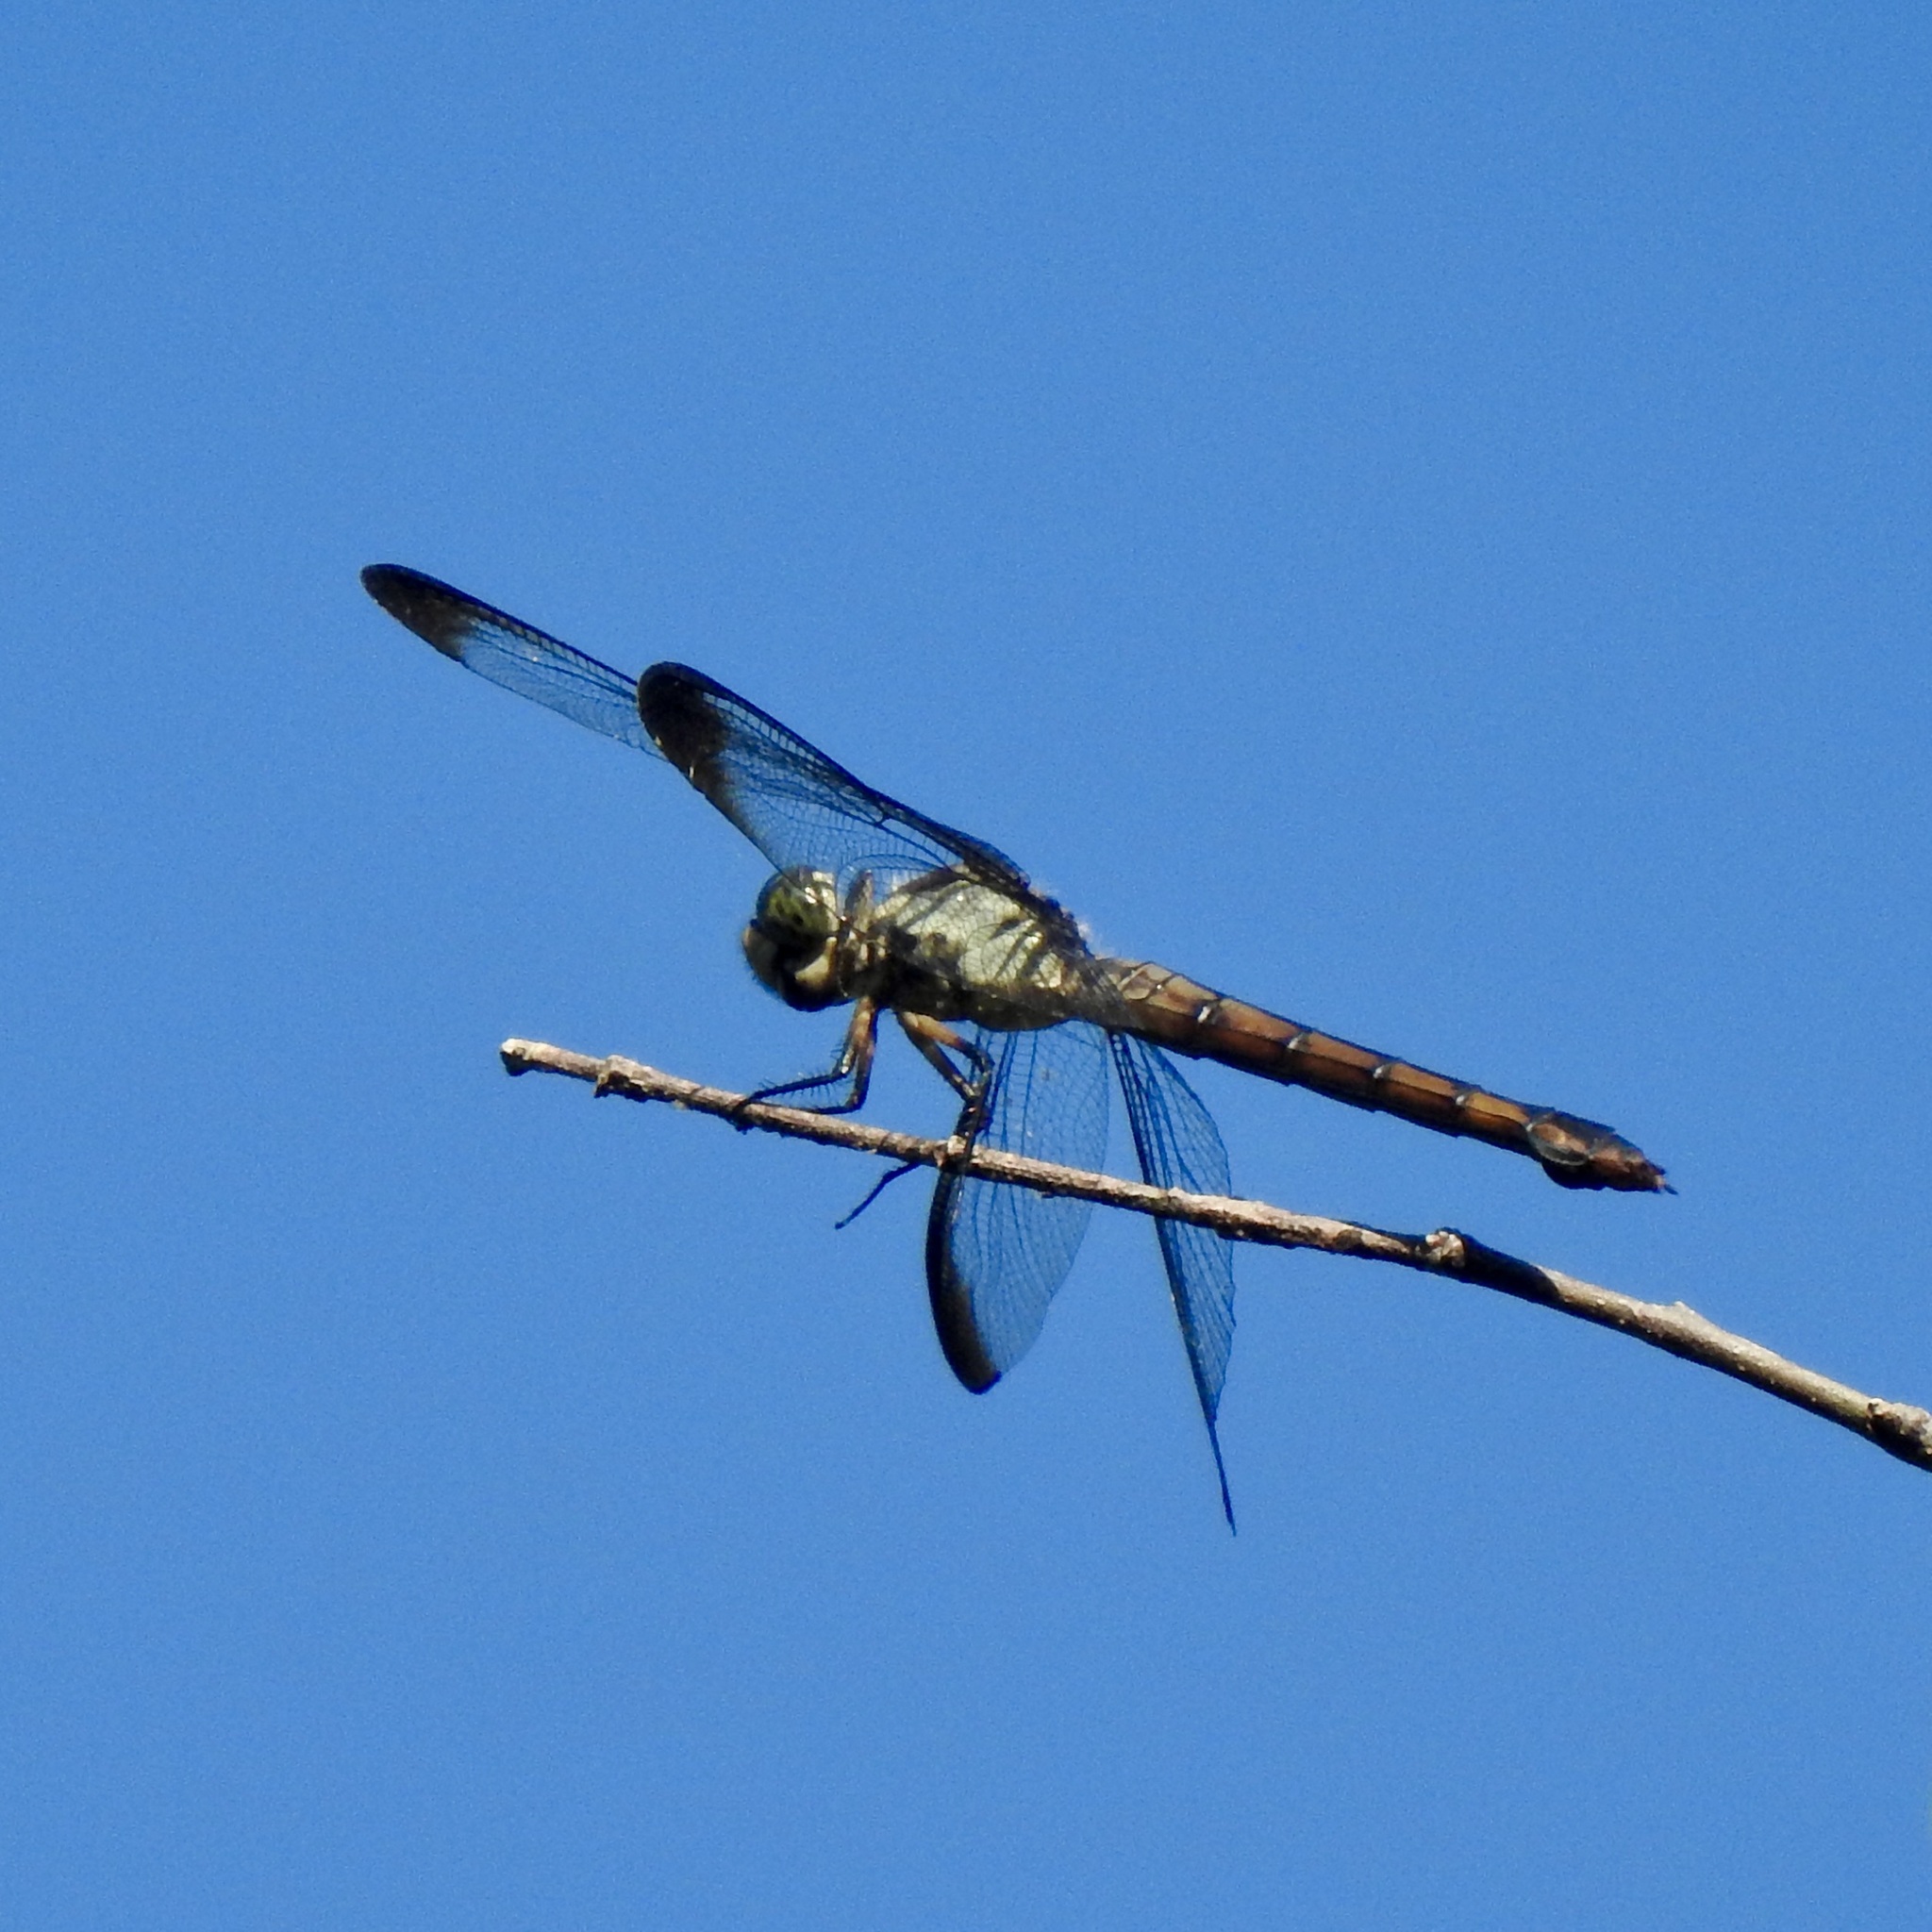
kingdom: Animalia
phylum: Arthropoda
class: Insecta
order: Odonata
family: Libellulidae
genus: Libellula
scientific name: Libellula vibrans
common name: Great blue skimmer
